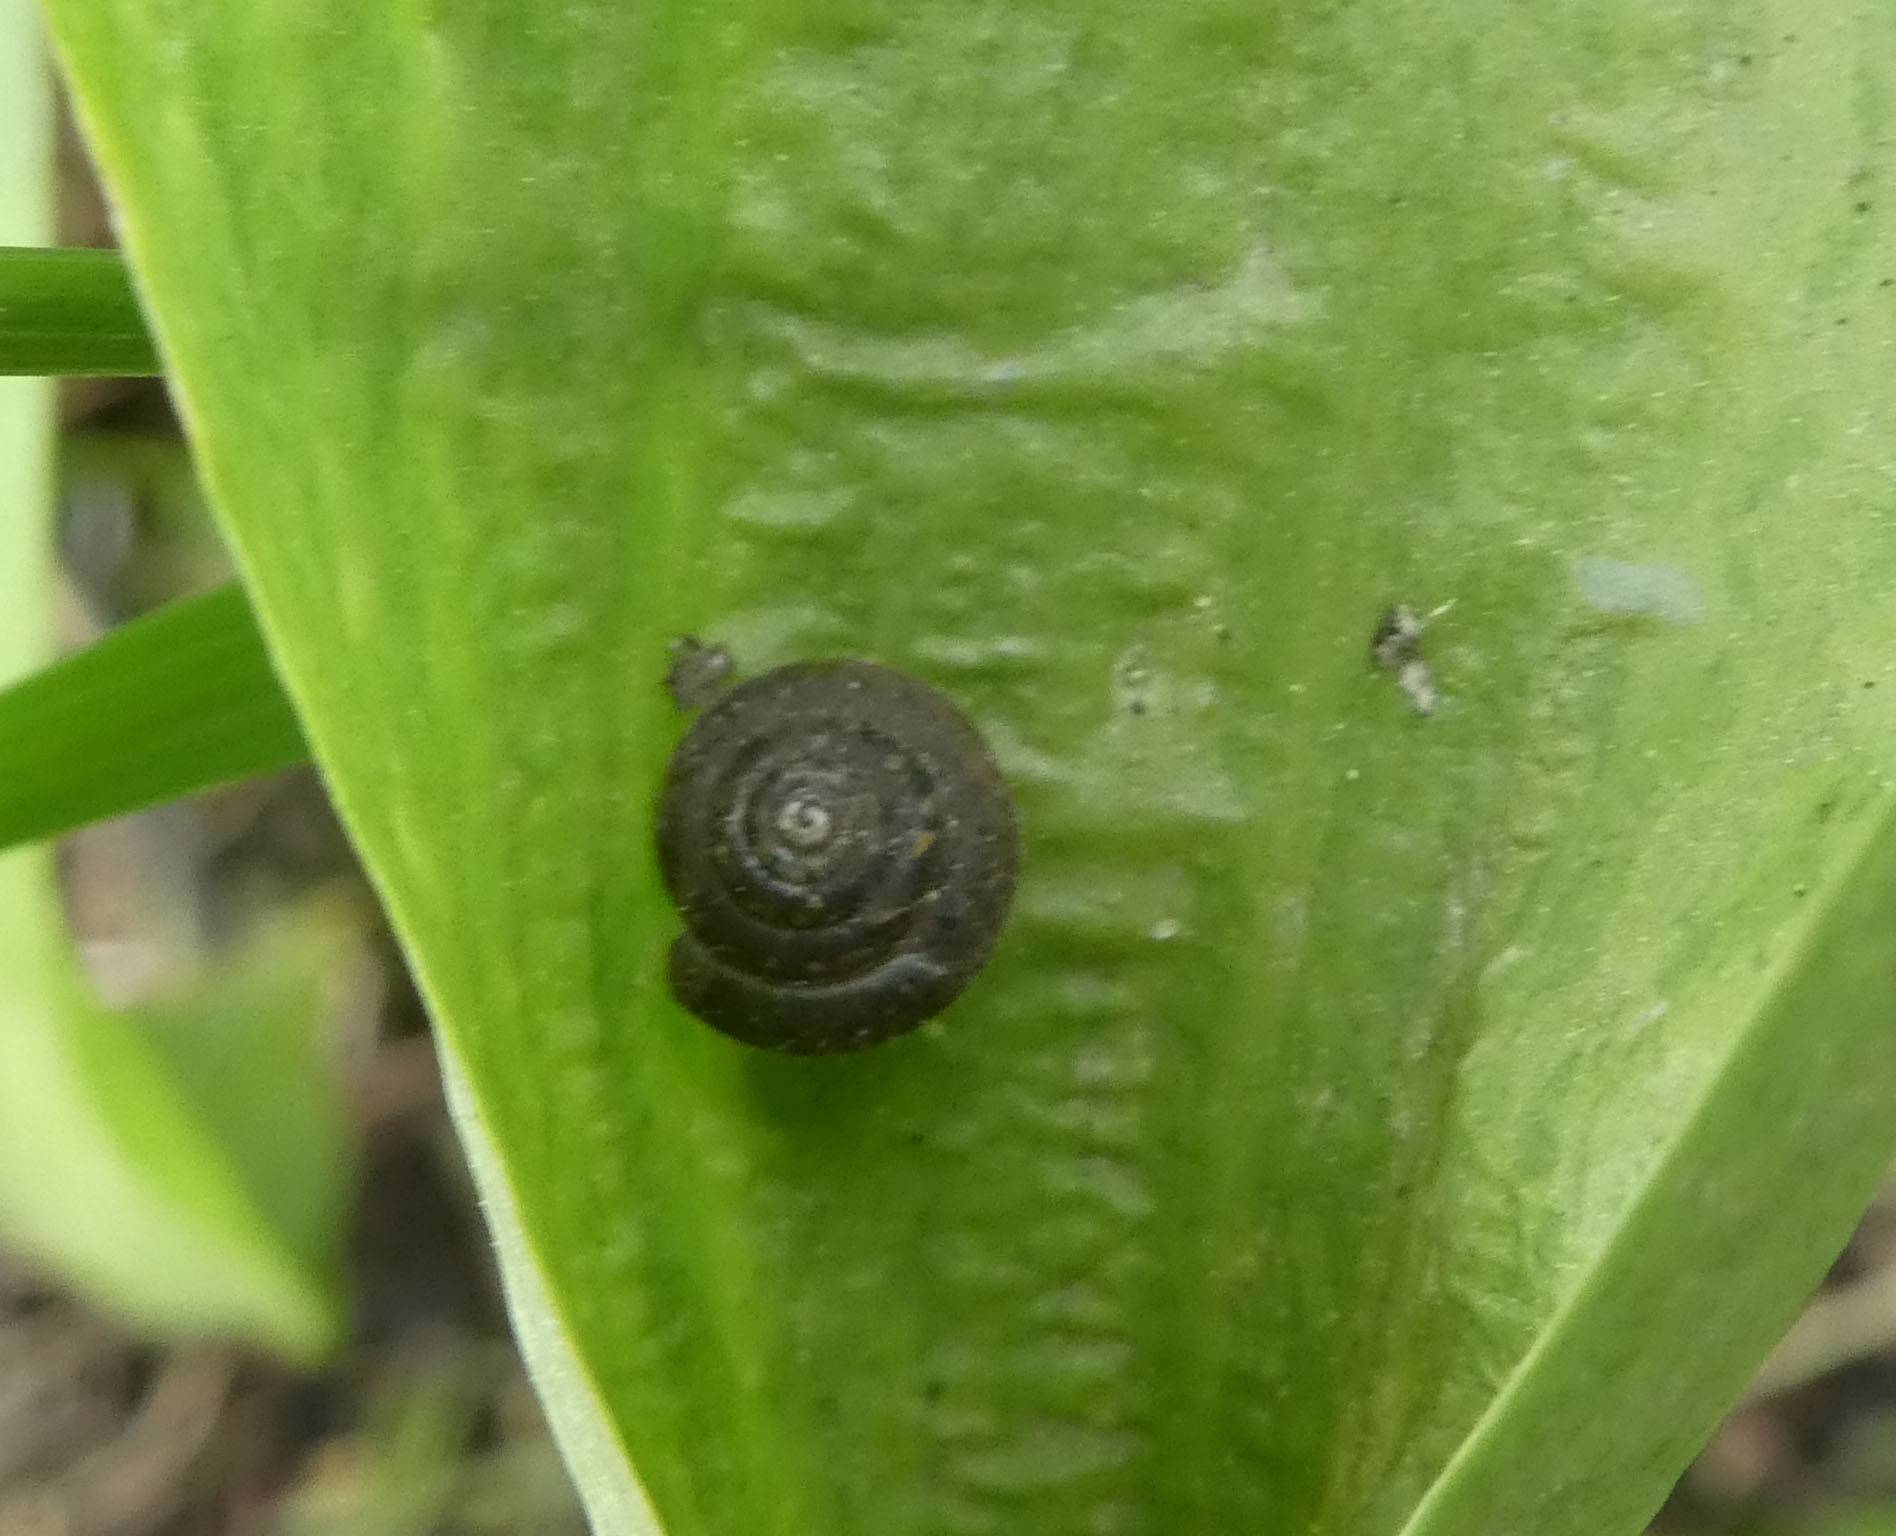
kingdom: Animalia
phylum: Mollusca
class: Gastropoda
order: Stylommatophora
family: Hygromiidae
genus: Trochulus
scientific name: Trochulus hispidus
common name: Hairy snail
